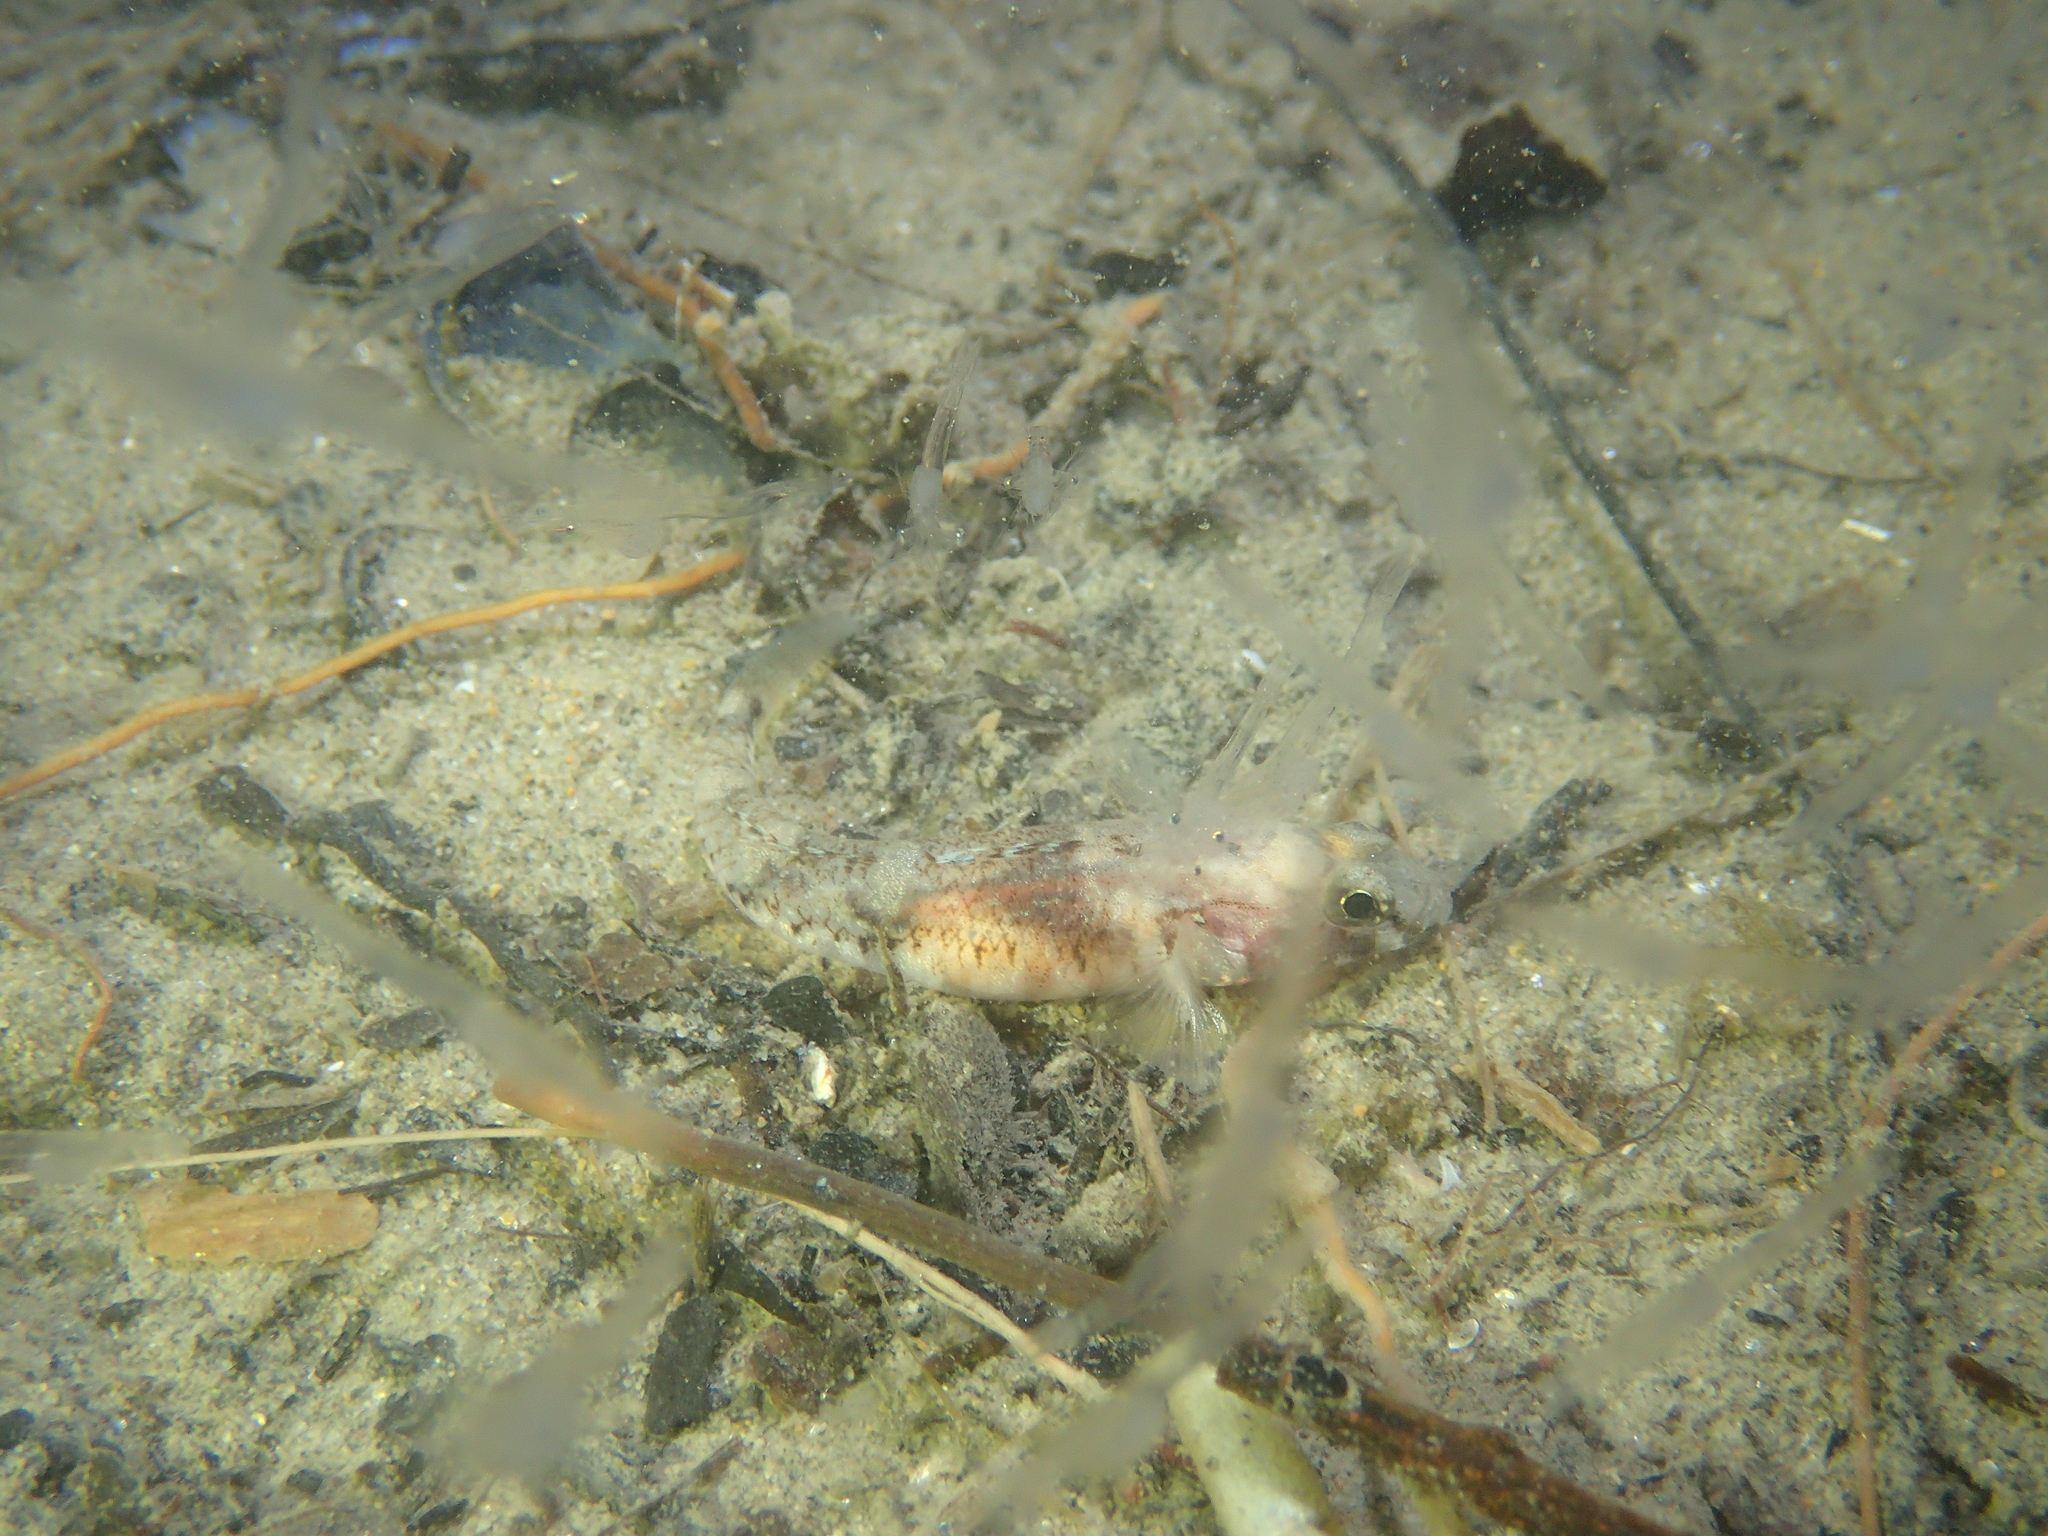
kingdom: Animalia
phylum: Chordata
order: Perciformes
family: Gobiidae
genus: Pomatoschistus
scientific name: Pomatoschistus pictus
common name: Painted goby
